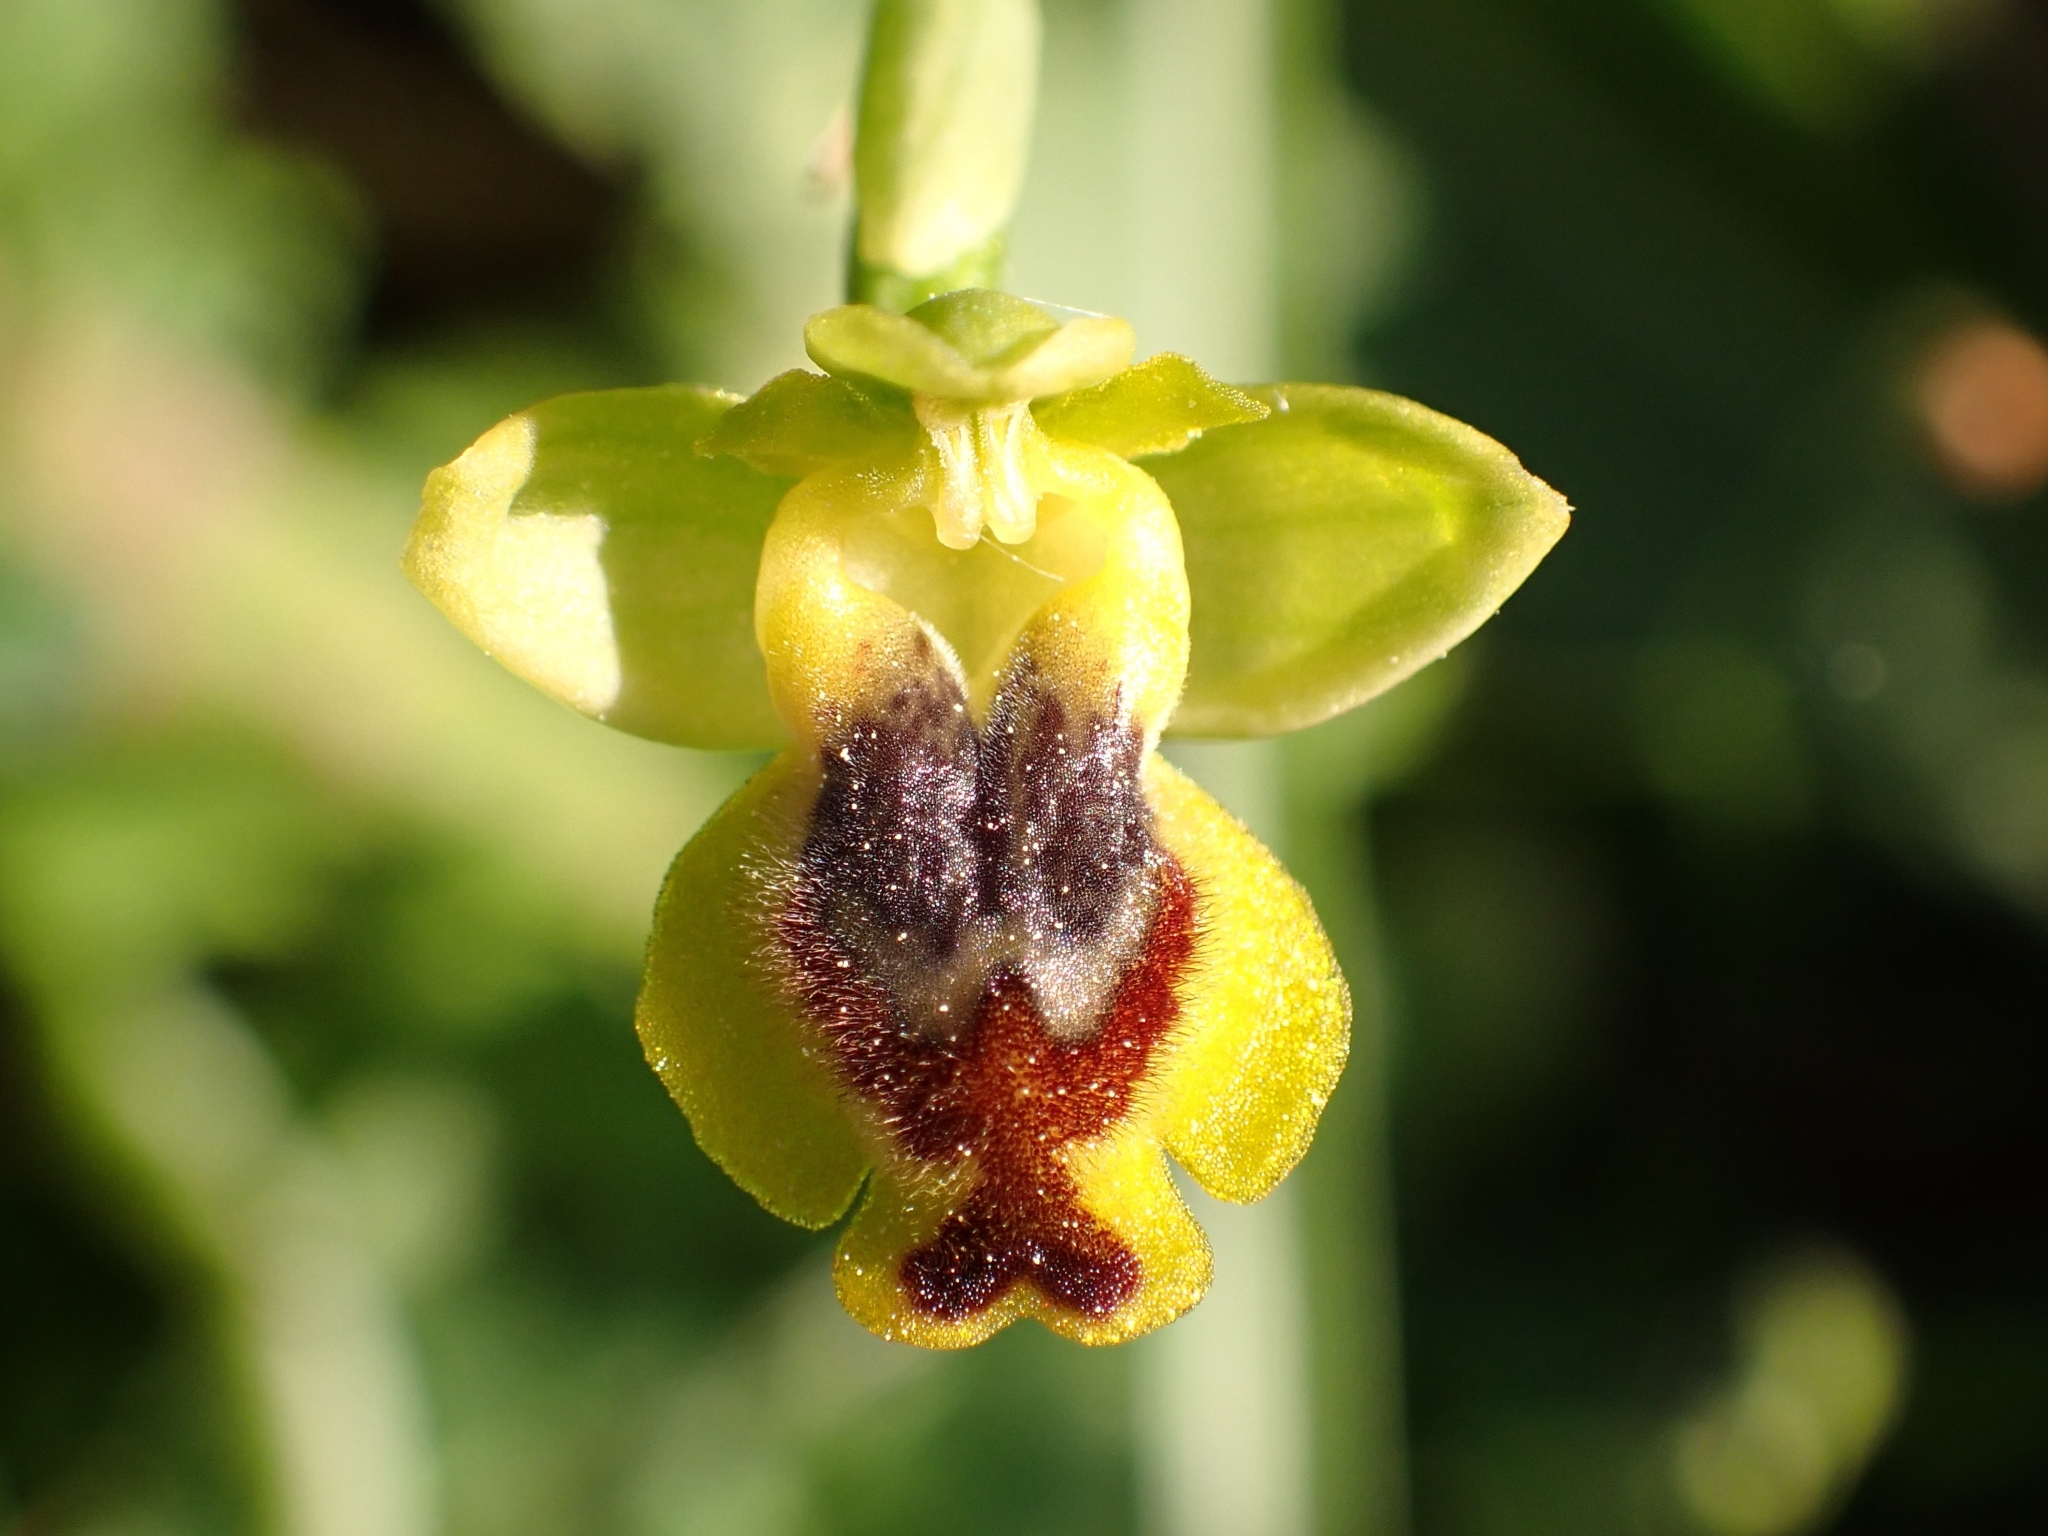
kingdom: Plantae
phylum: Tracheophyta
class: Liliopsida
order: Asparagales
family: Orchidaceae
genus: Ophrys
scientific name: Ophrys lutea
